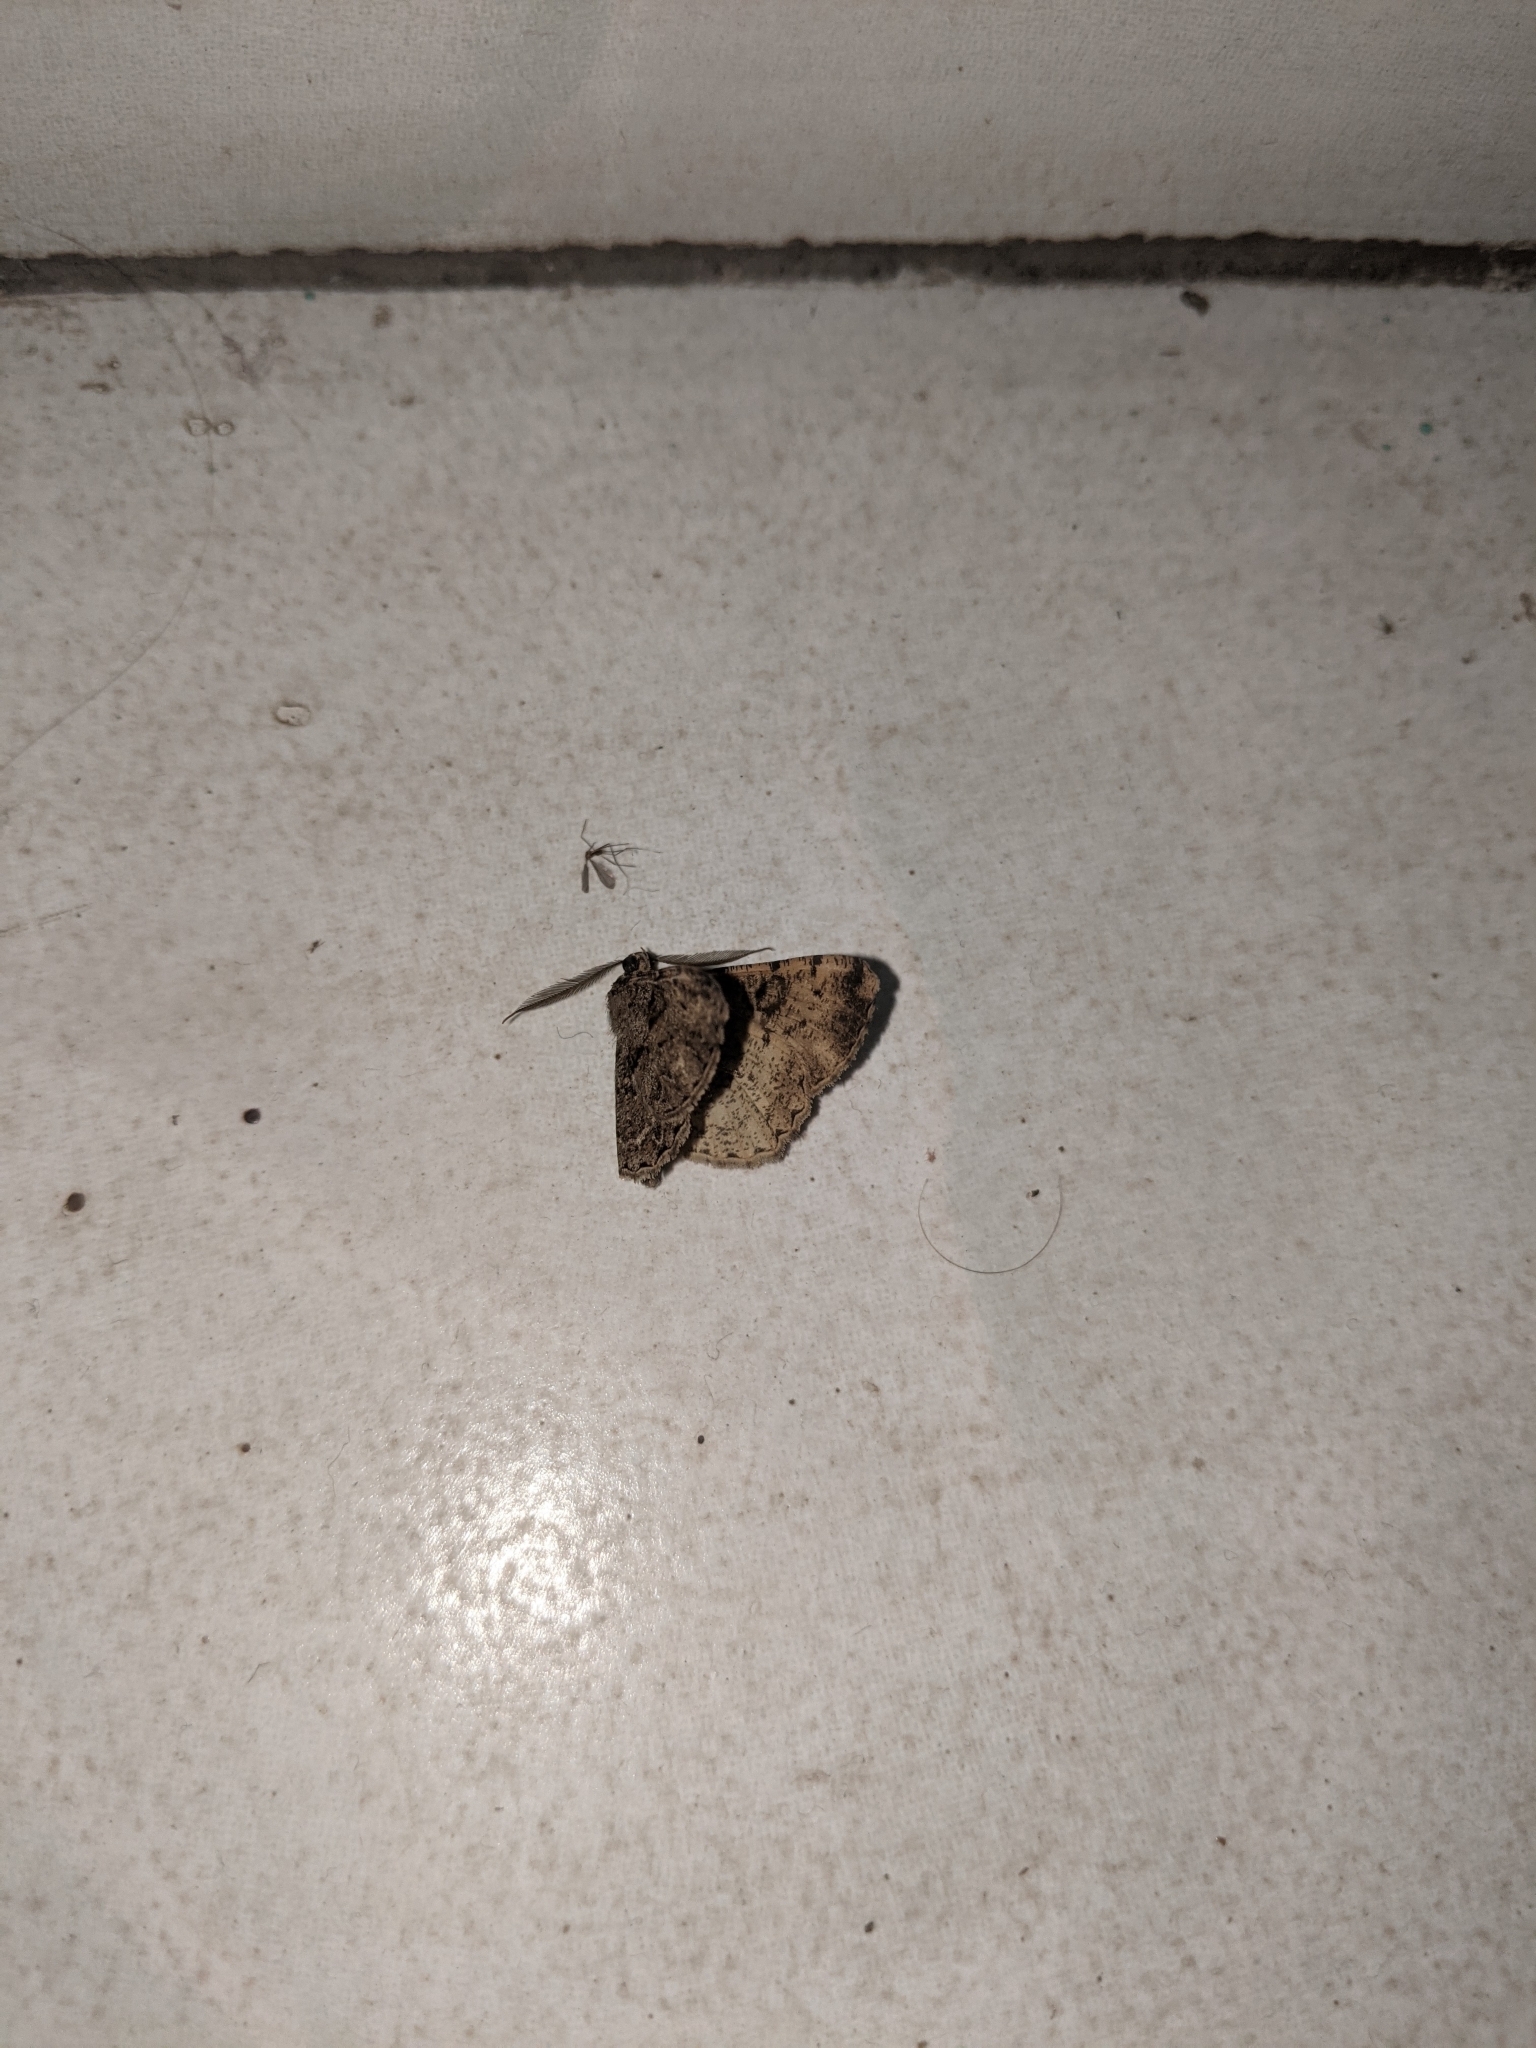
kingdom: Animalia
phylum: Arthropoda
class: Insecta
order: Lepidoptera
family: Geometridae
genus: Peribatodes
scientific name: Peribatodes rhomboidaria
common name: Willow beauty
